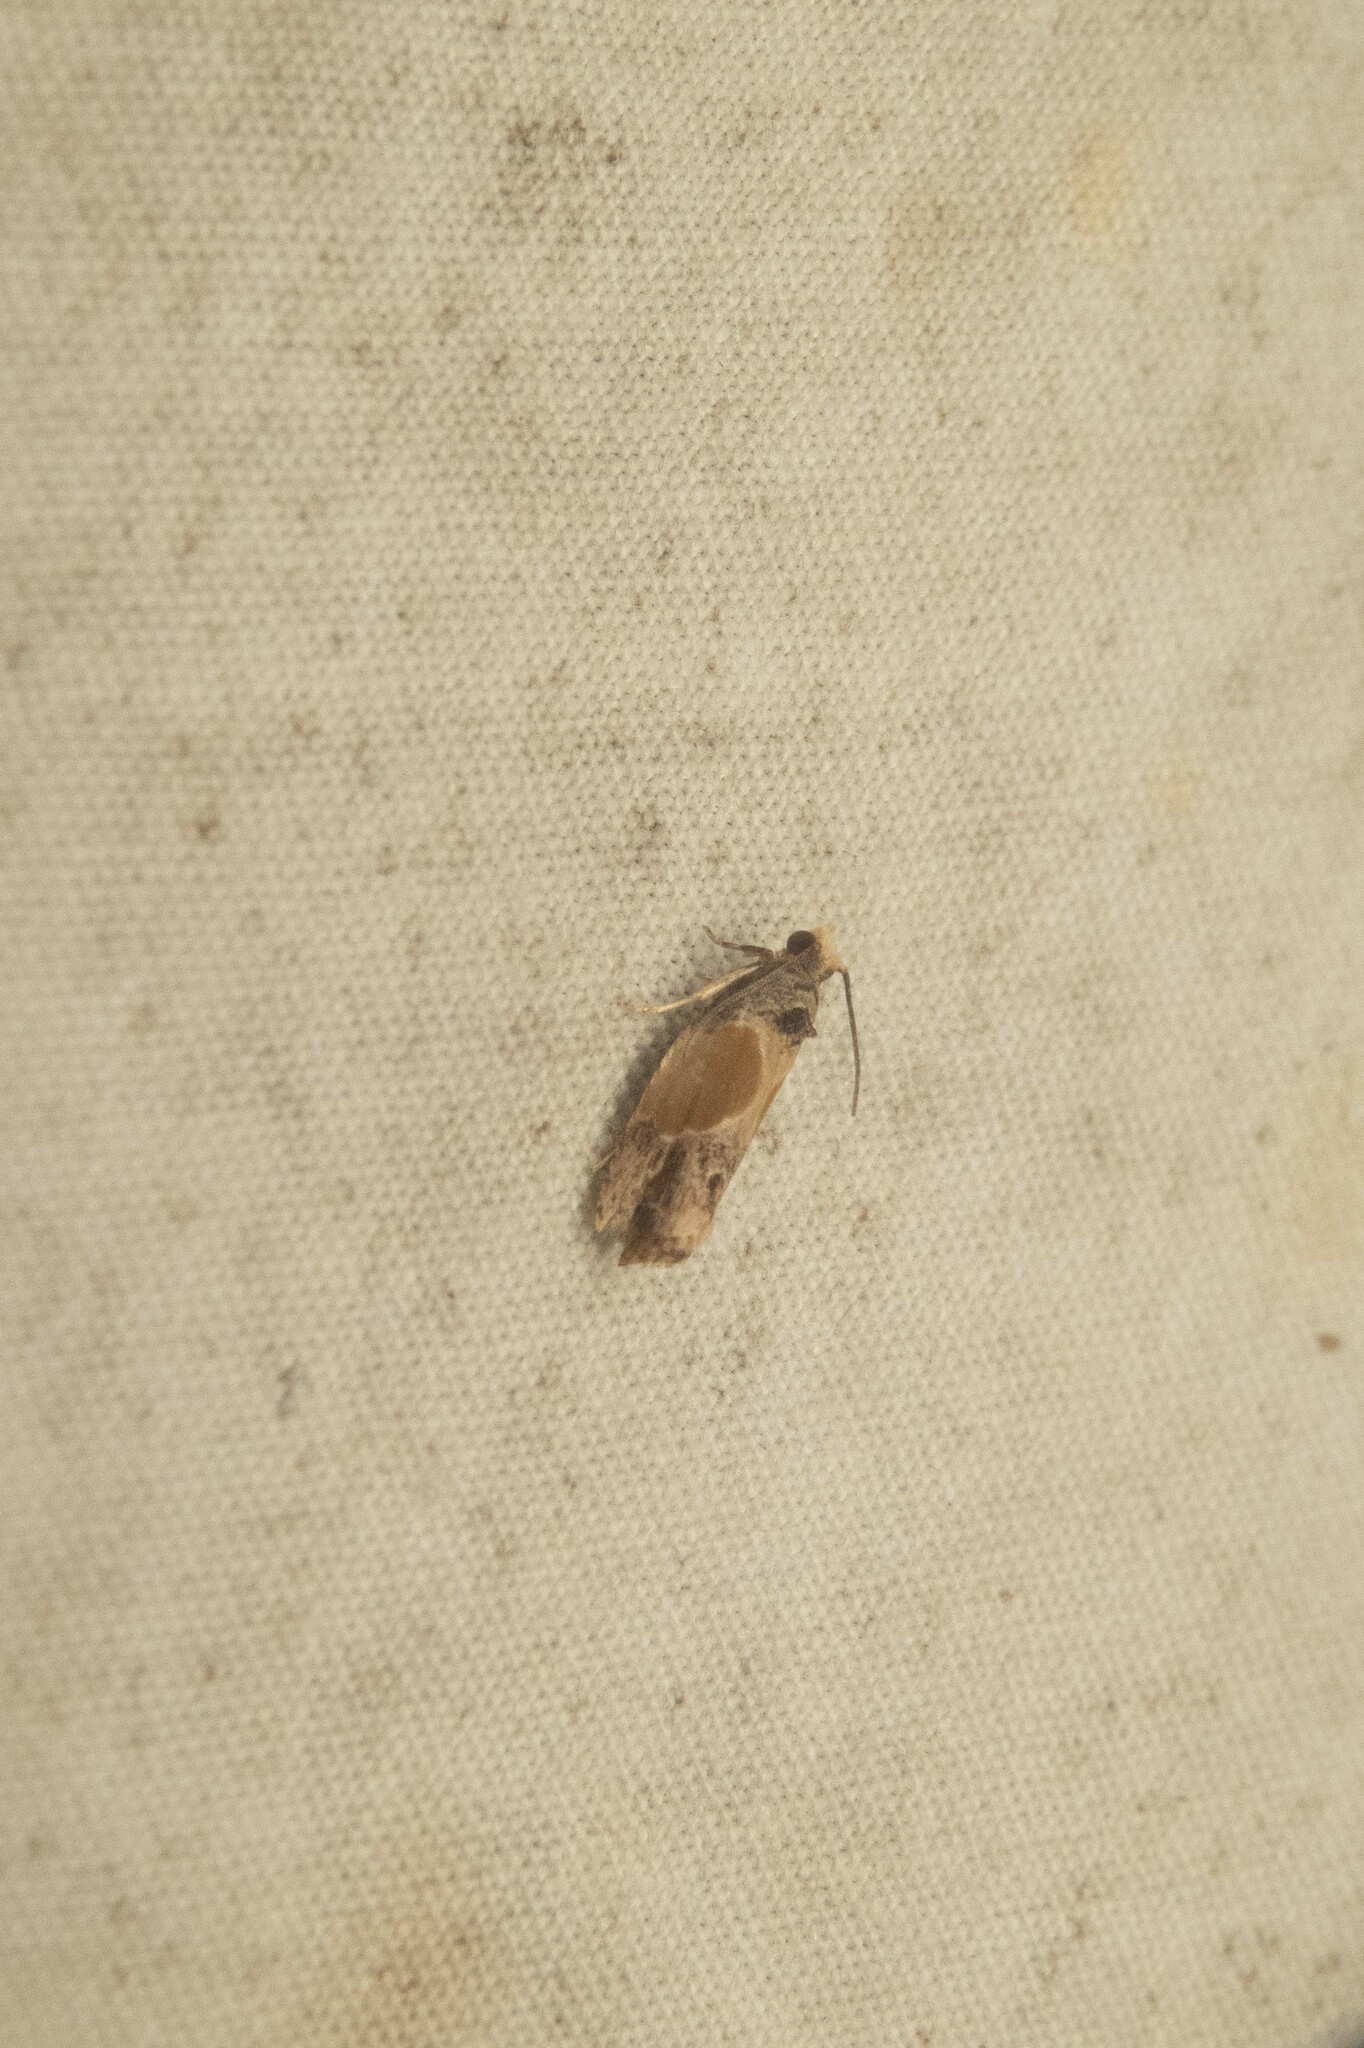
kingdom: Animalia
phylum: Arthropoda
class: Insecta
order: Lepidoptera
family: Tortricidae
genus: Eumarozia
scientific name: Eumarozia malachitana
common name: Sculptured moth
